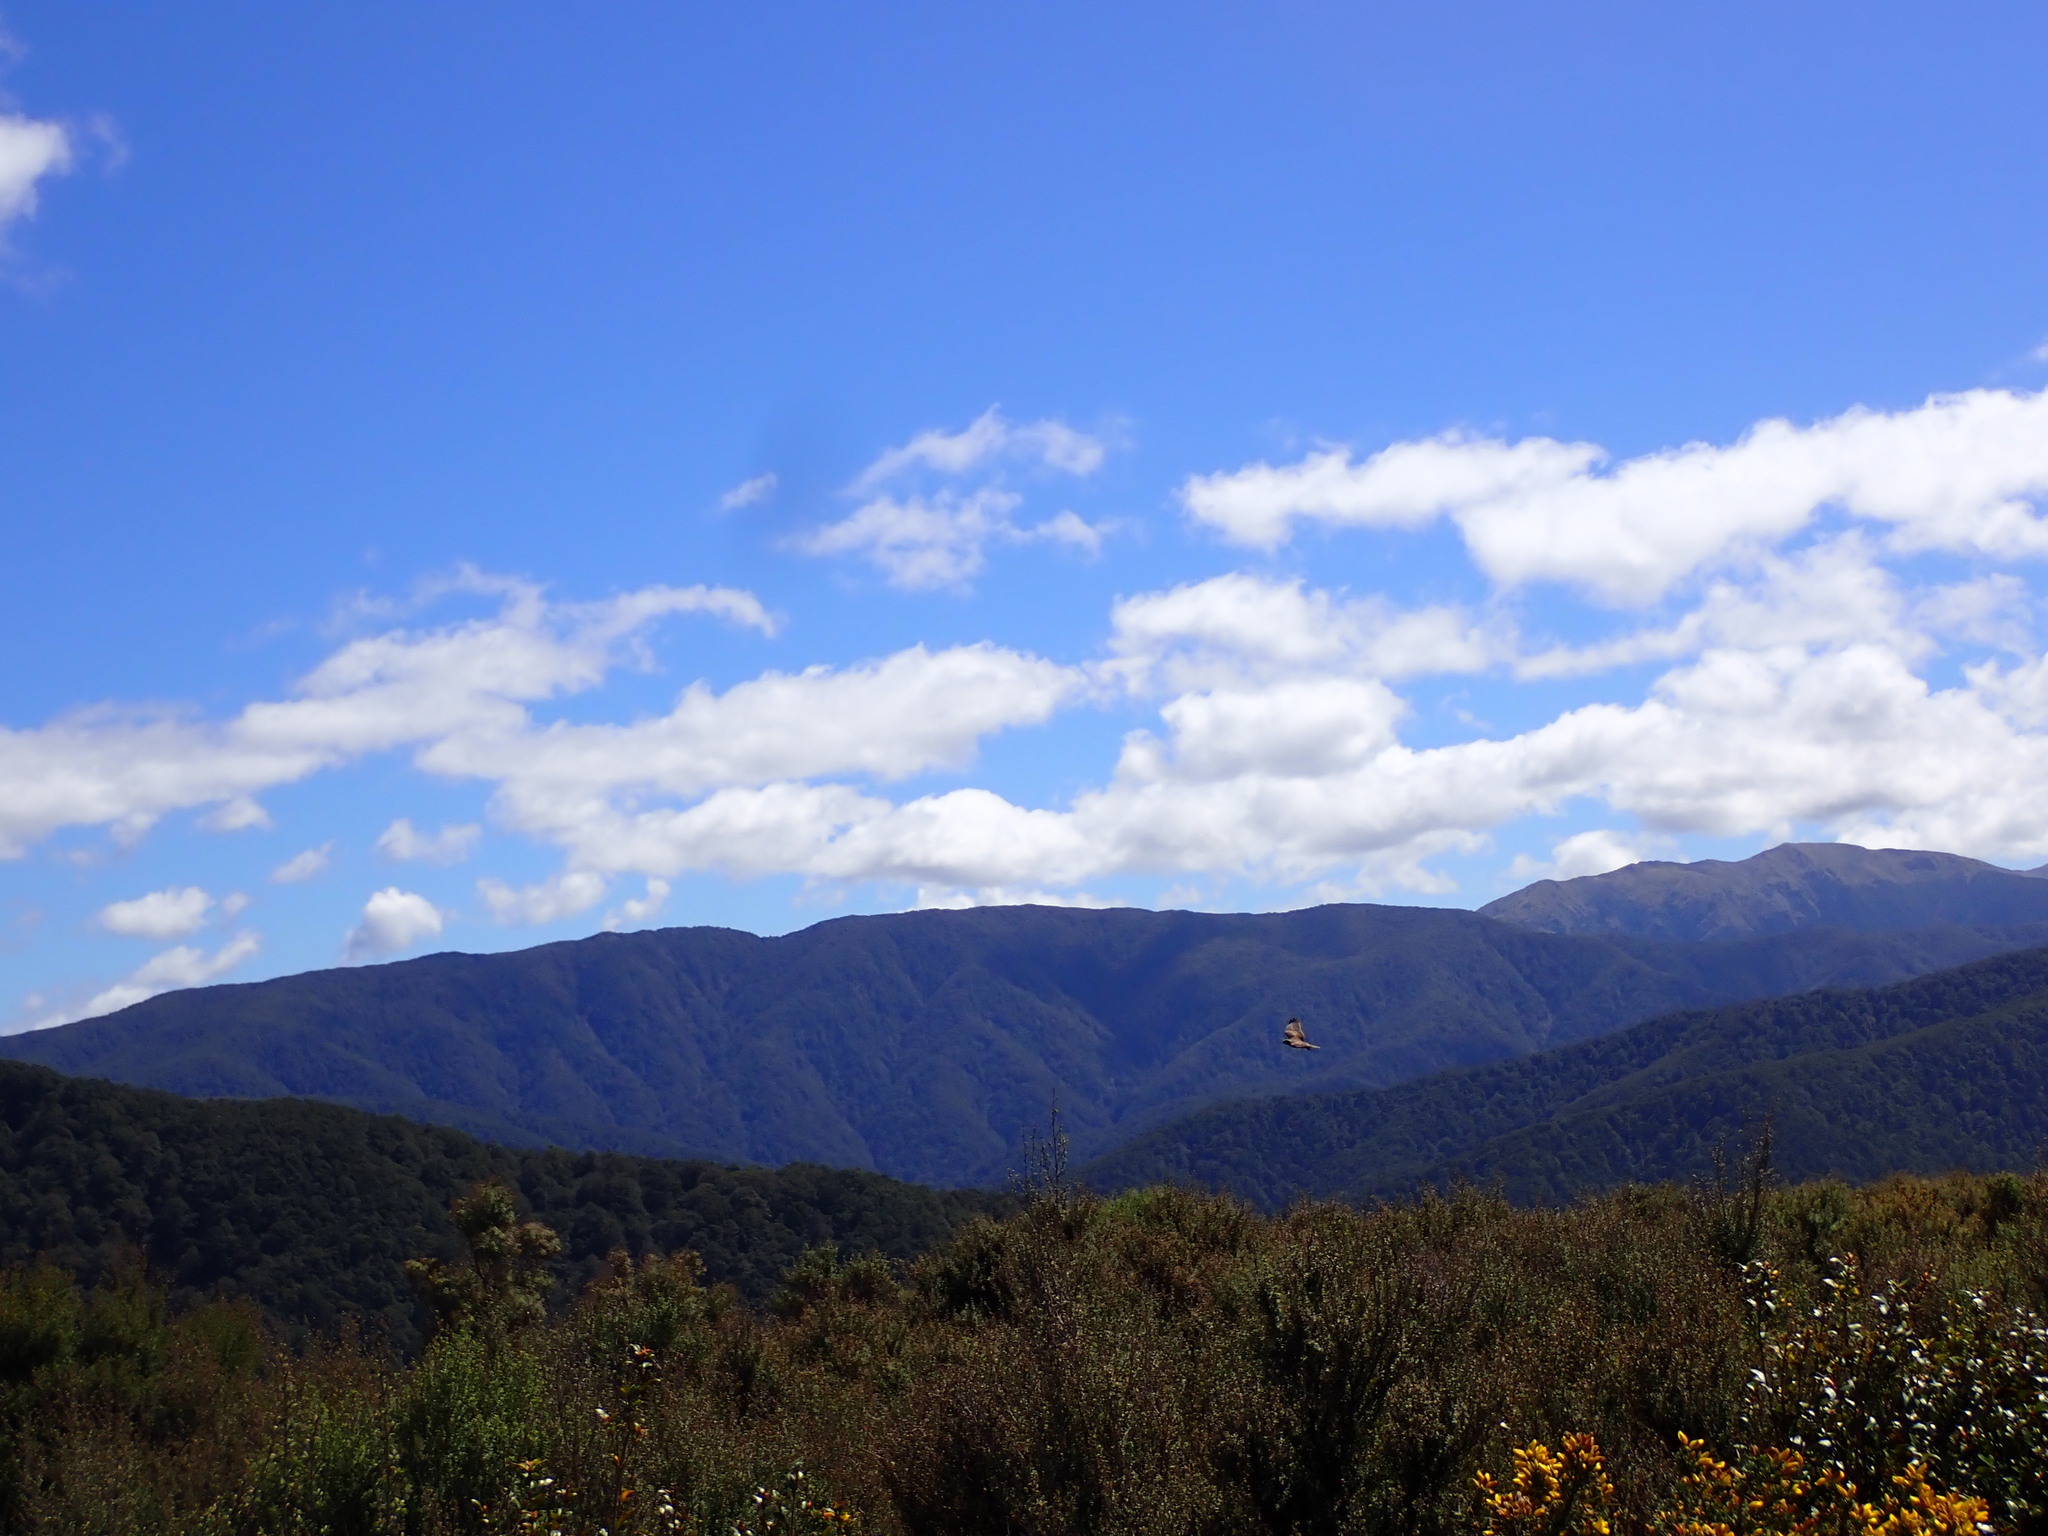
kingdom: Animalia
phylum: Chordata
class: Aves
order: Accipitriformes
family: Accipitridae
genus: Circus
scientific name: Circus approximans
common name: Swamp harrier
